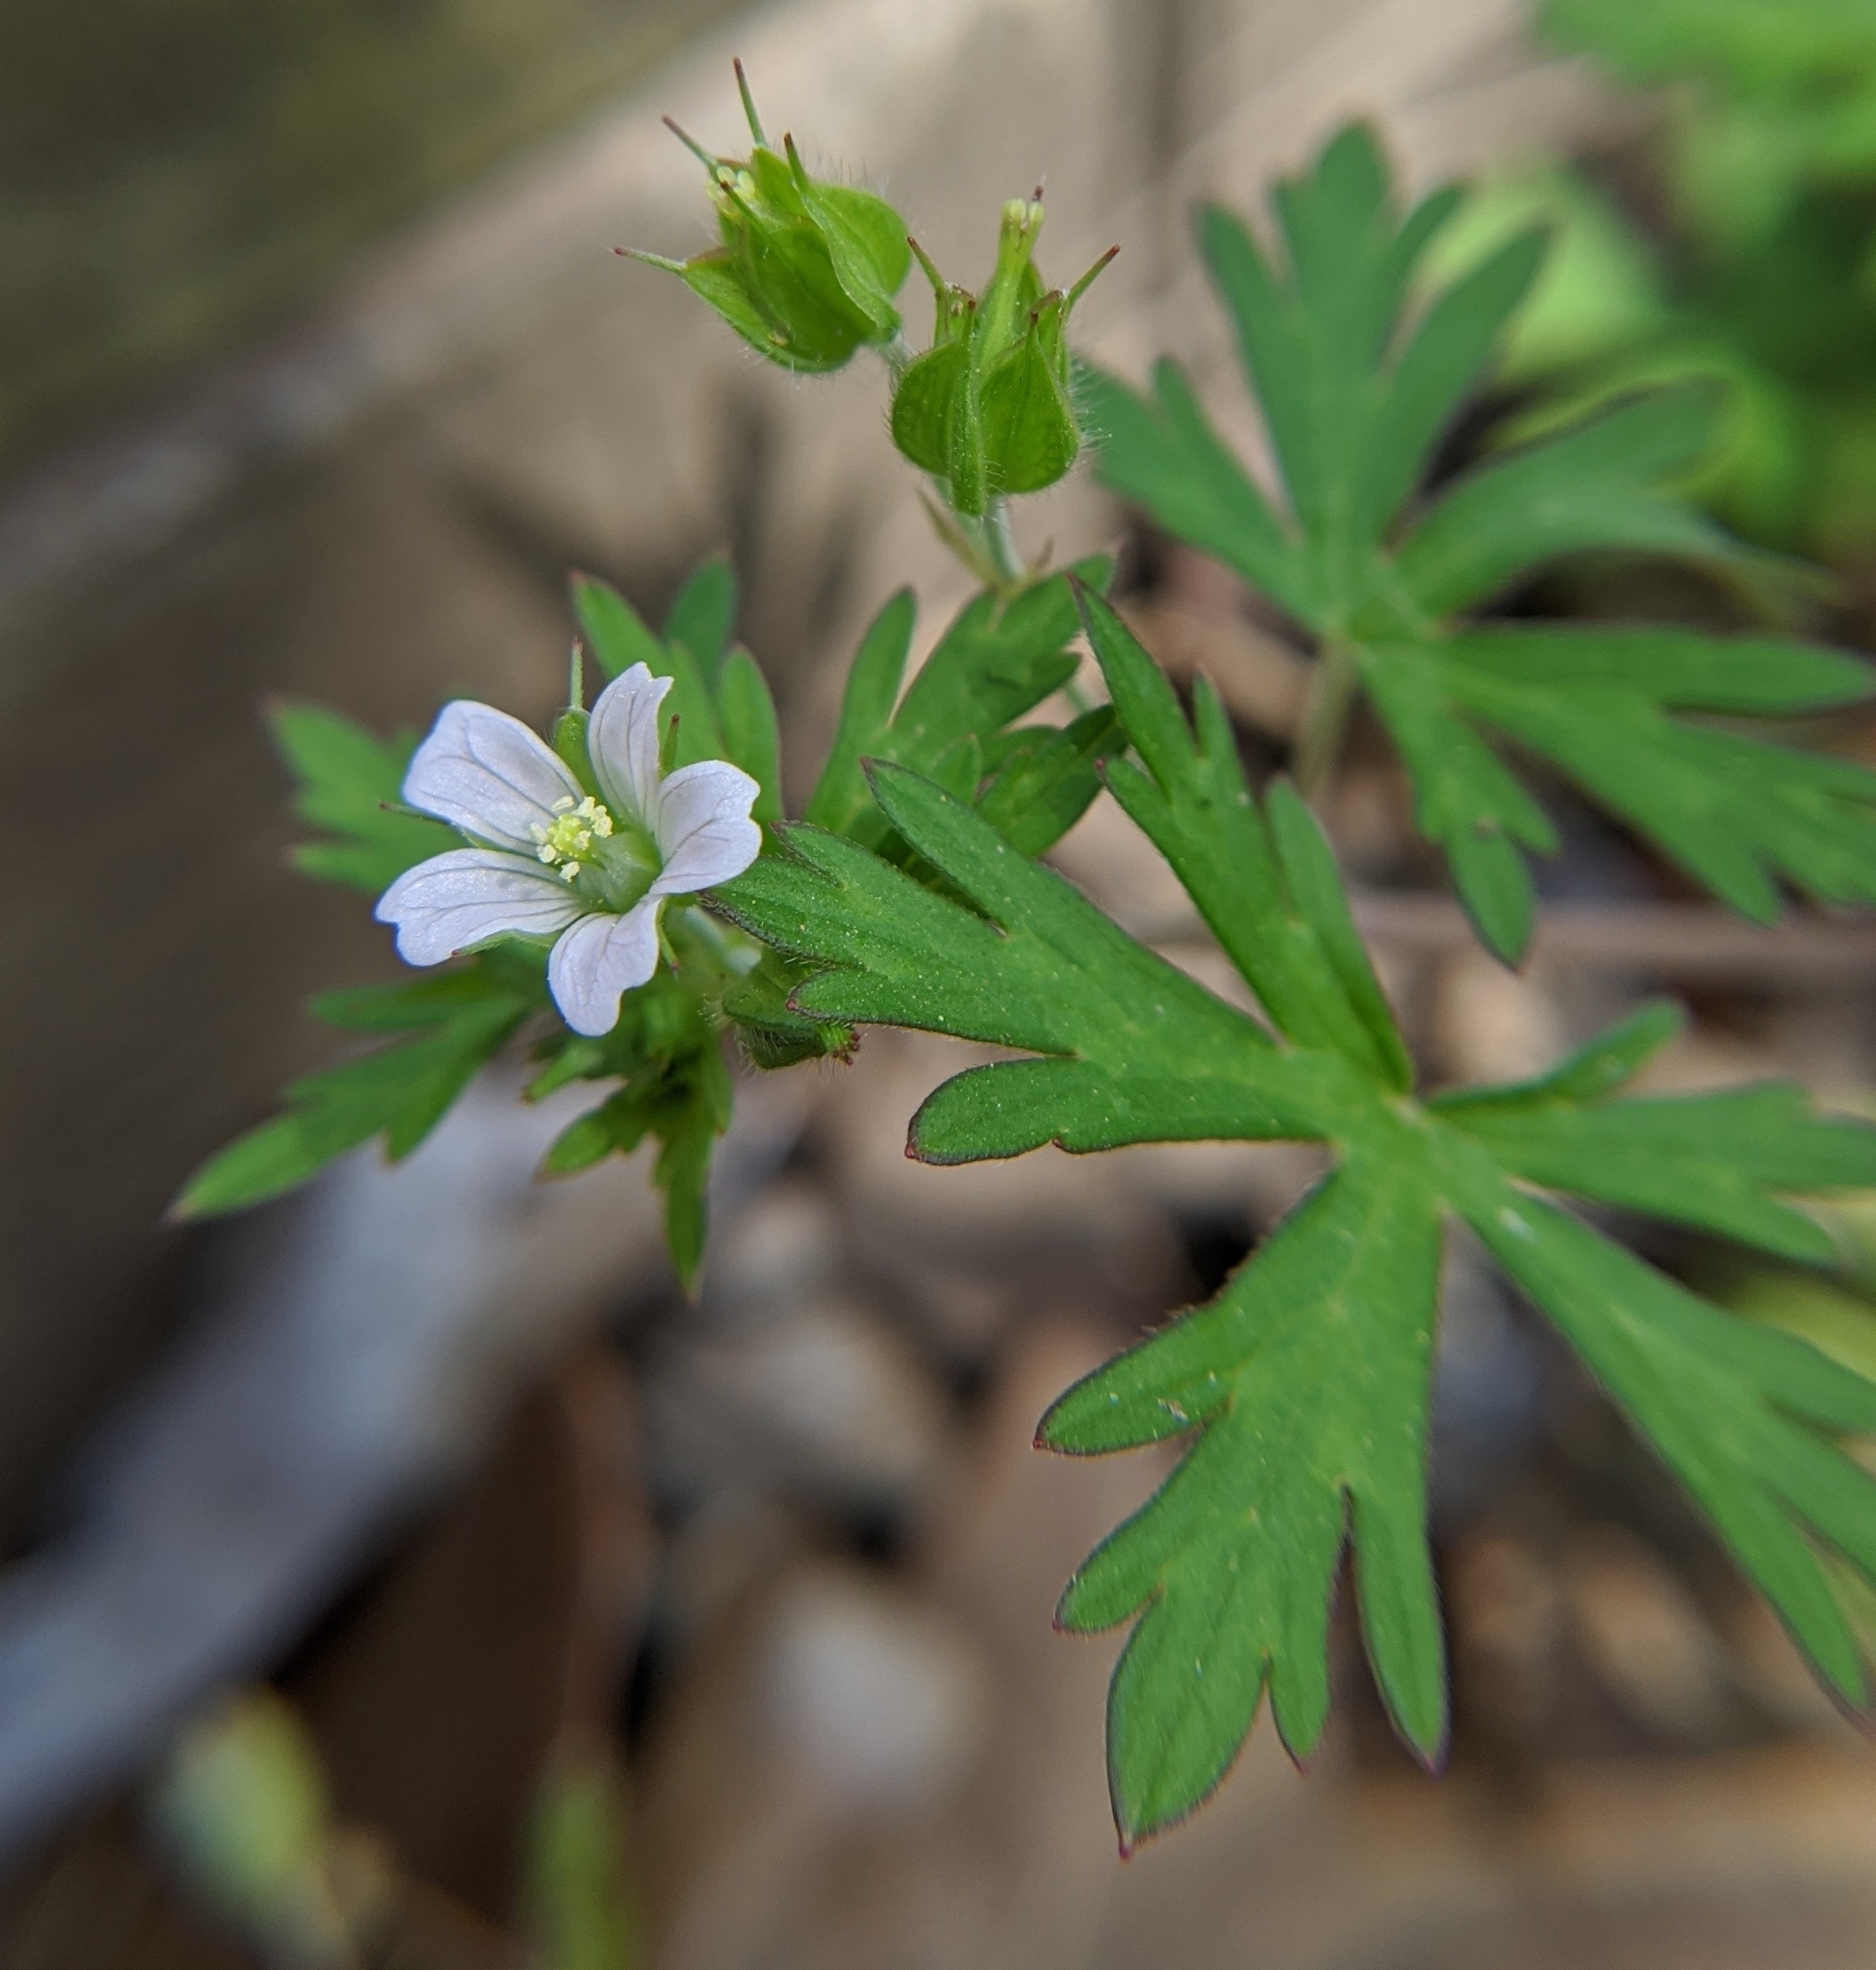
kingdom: Plantae
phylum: Tracheophyta
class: Magnoliopsida
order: Geraniales
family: Geraniaceae
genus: Geranium
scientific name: Geranium carolinianum
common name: Carolina crane's-bill
